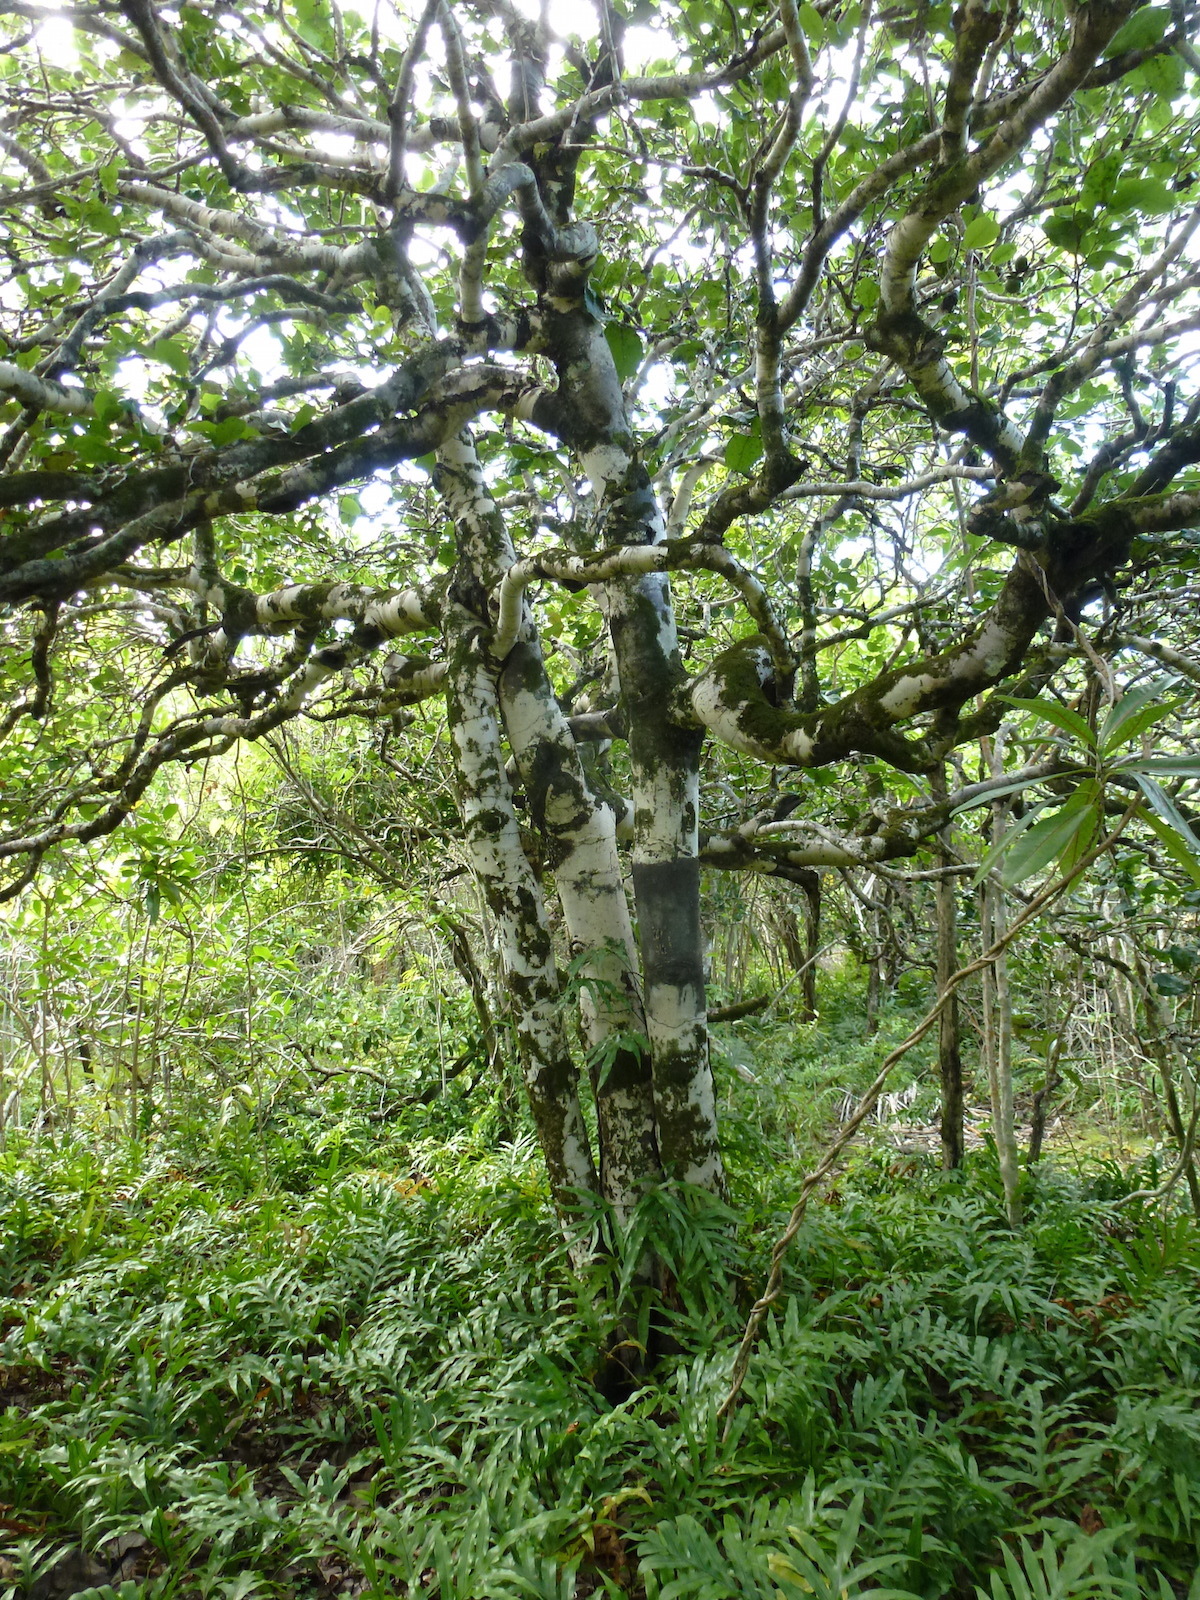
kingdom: Plantae
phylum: Tracheophyta
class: Magnoliopsida
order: Ericales
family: Ebenaceae
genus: Diospyros
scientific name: Diospyros egrettarum
